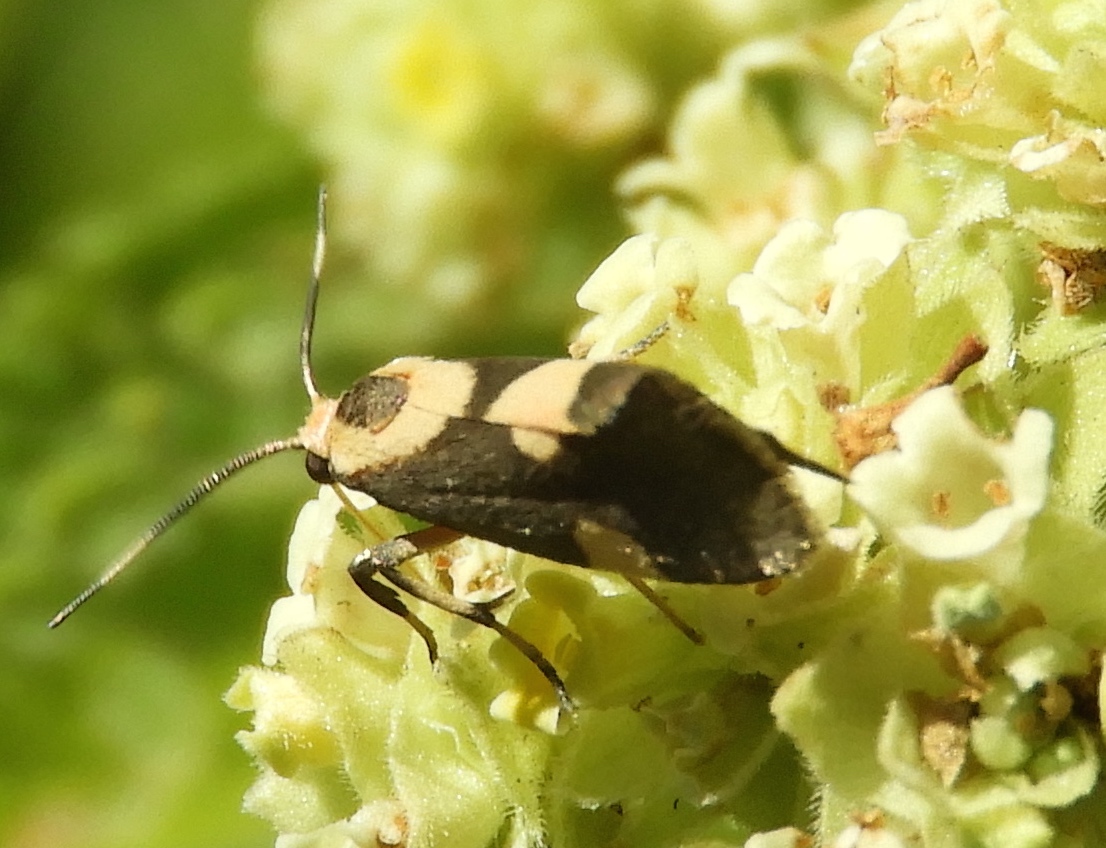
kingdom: Animalia
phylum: Arthropoda
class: Insecta
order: Lepidoptera
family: Erebidae
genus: Cisthene
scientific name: Cisthene polyzona
